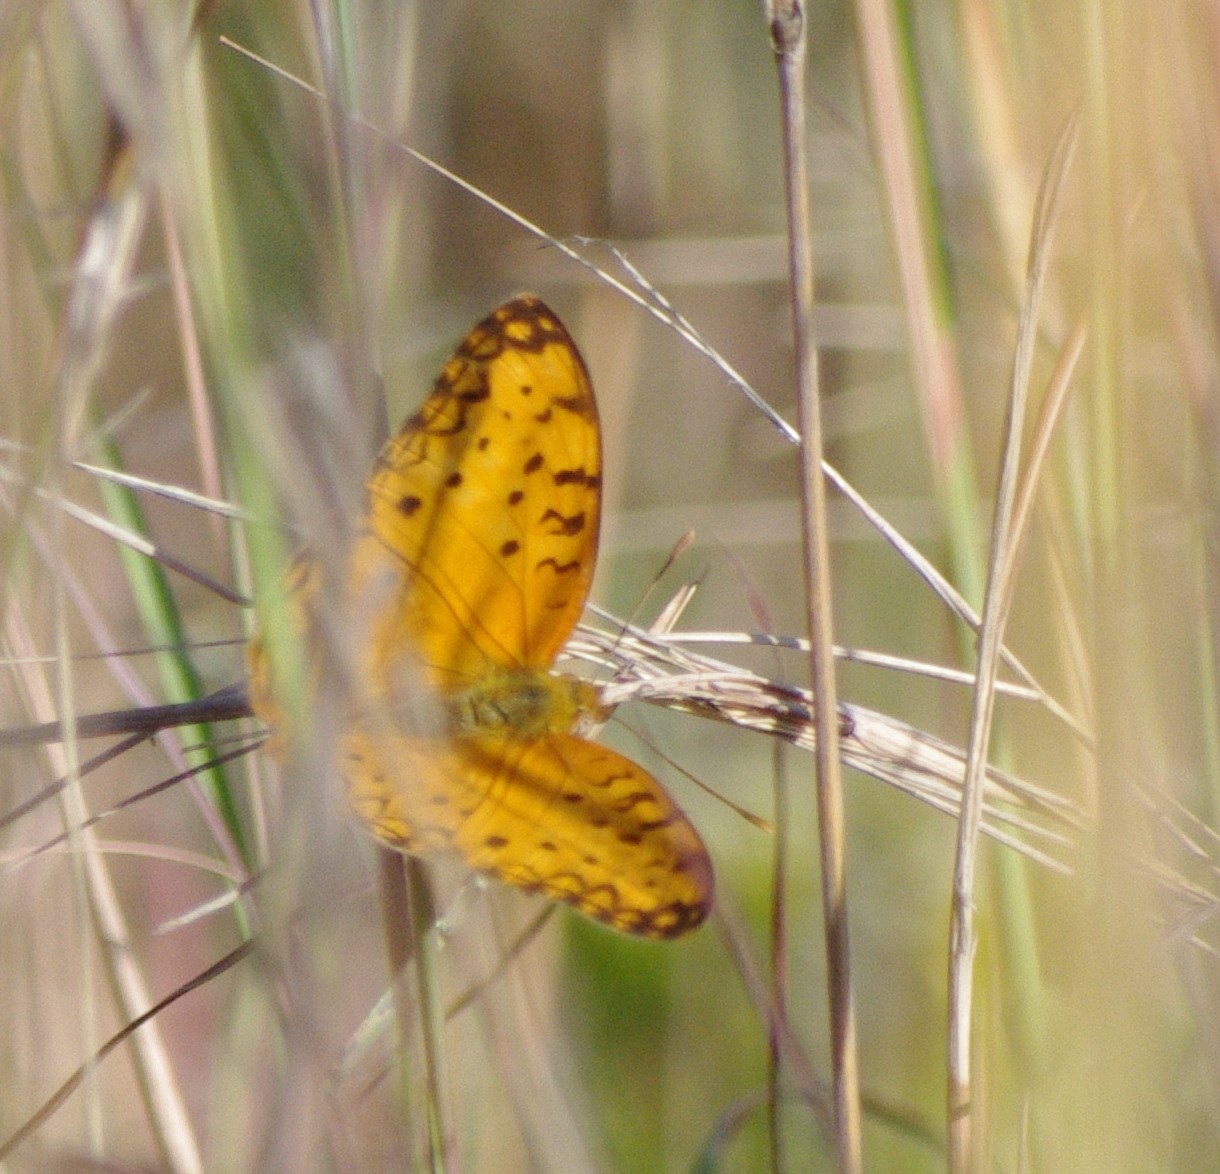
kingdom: Animalia
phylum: Arthropoda
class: Insecta
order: Lepidoptera
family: Nymphalidae
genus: Phalanta
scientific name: Phalanta phalantha
